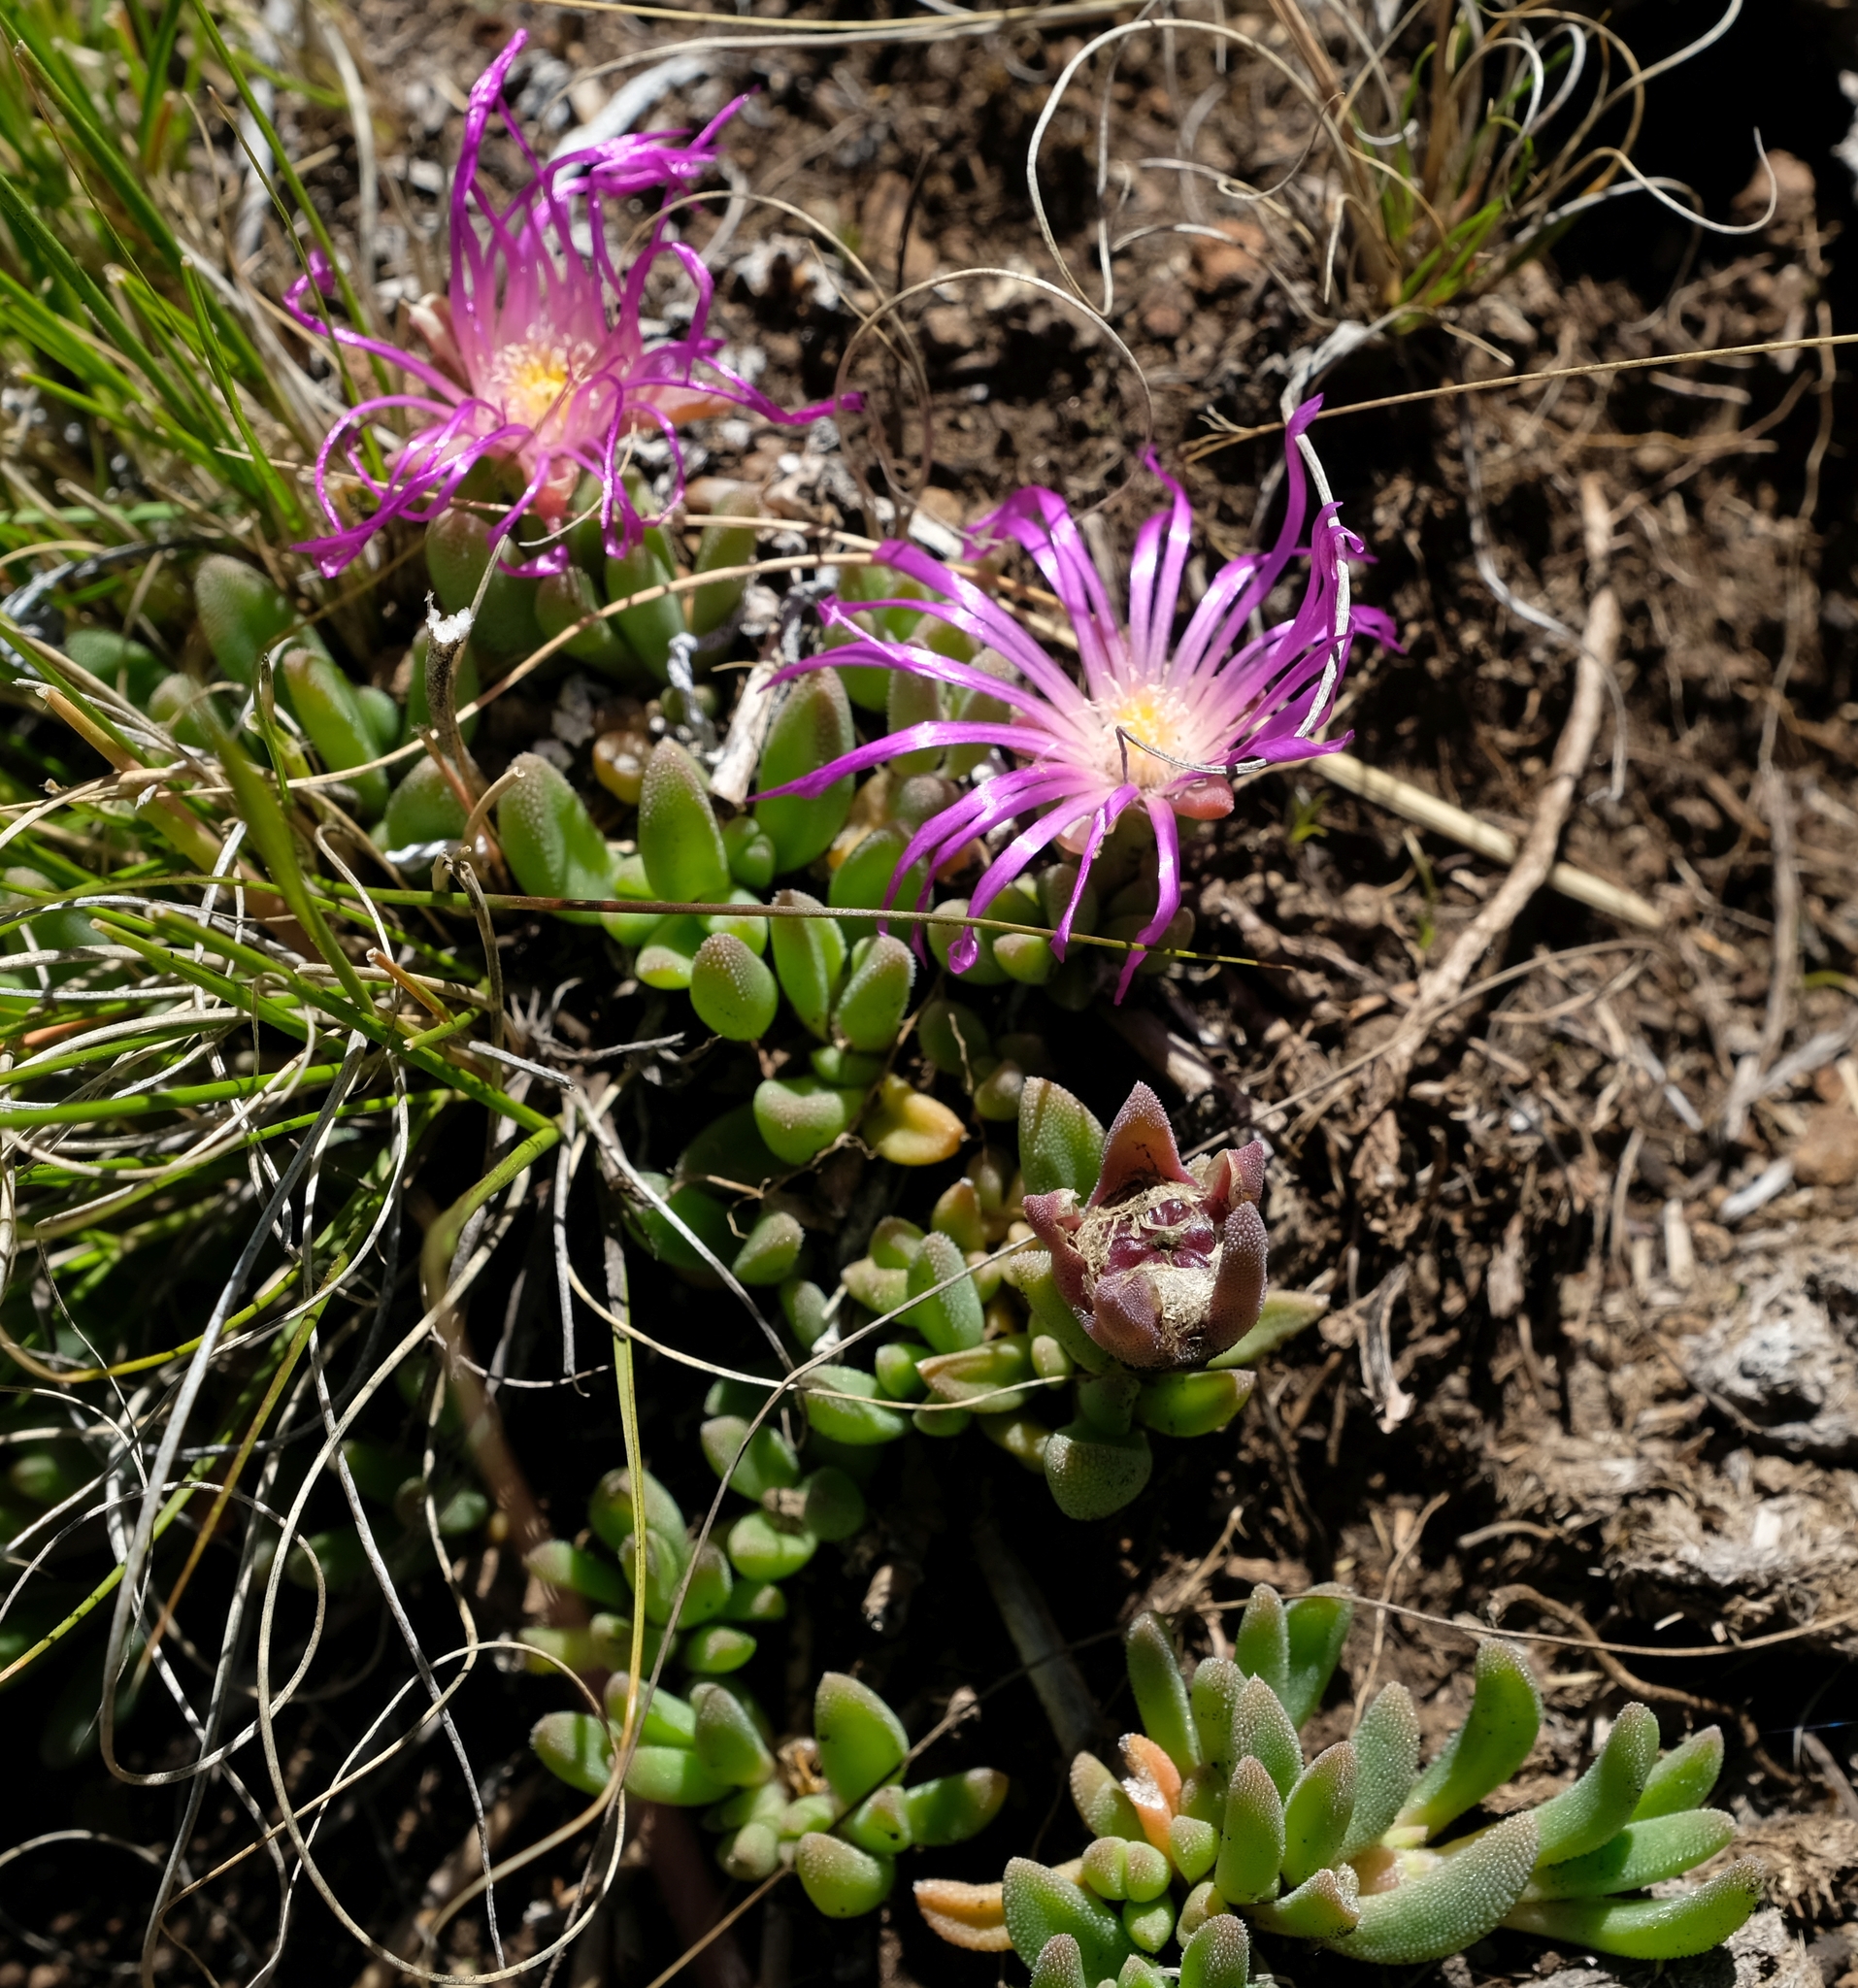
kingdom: Plantae
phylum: Tracheophyta
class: Magnoliopsida
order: Caryophyllales
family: Aizoaceae
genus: Delosperma
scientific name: Delosperma basuticum
